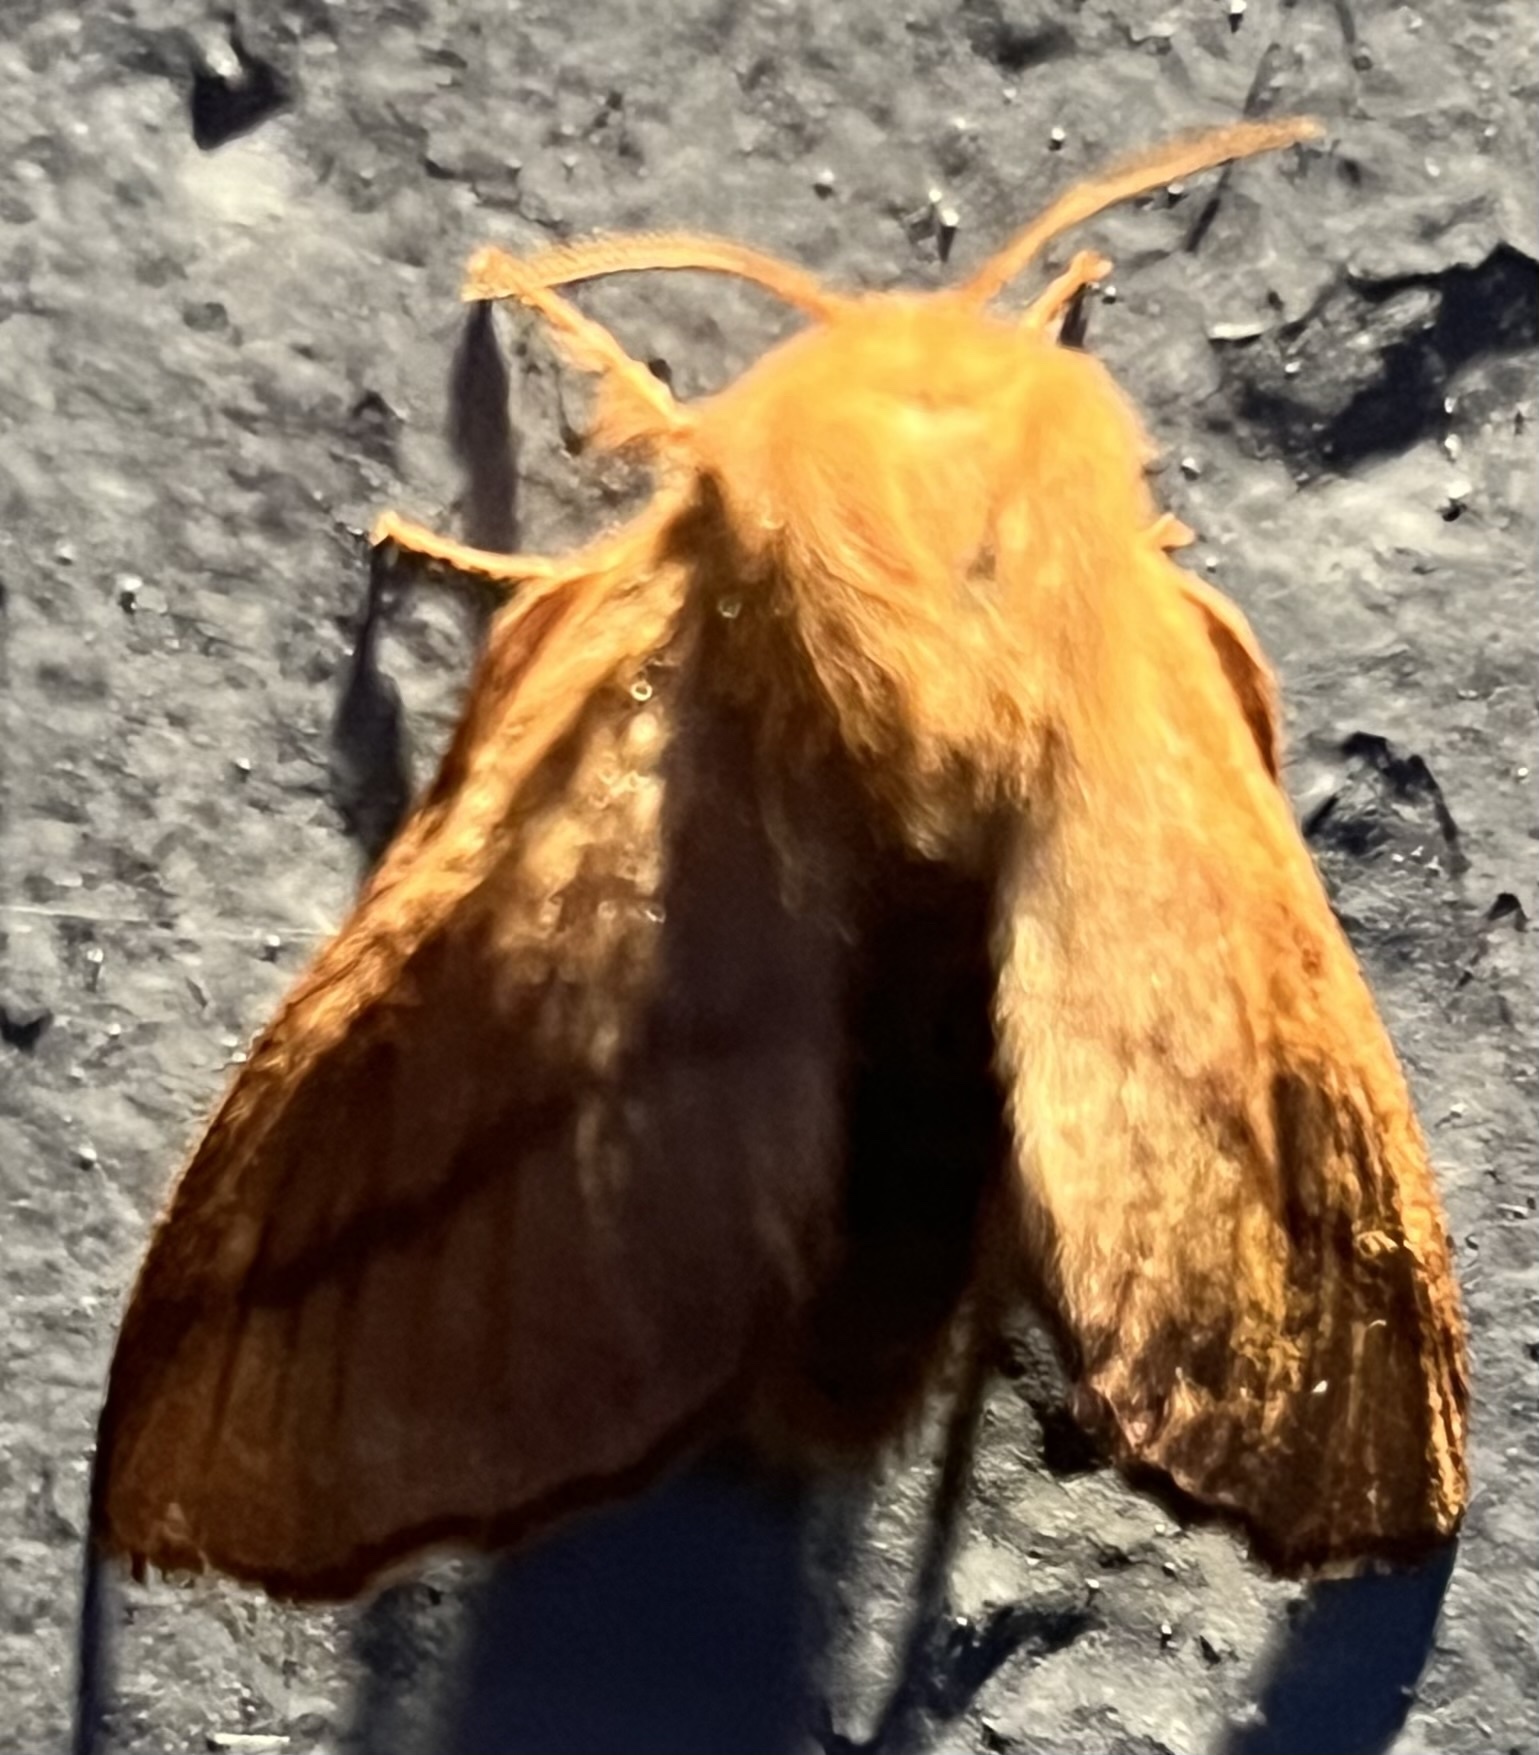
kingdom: Animalia
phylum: Arthropoda
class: Insecta
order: Lepidoptera
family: Lasiocampidae
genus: Malacosoma
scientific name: Malacosoma disstria
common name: Forest tent caterpillar
